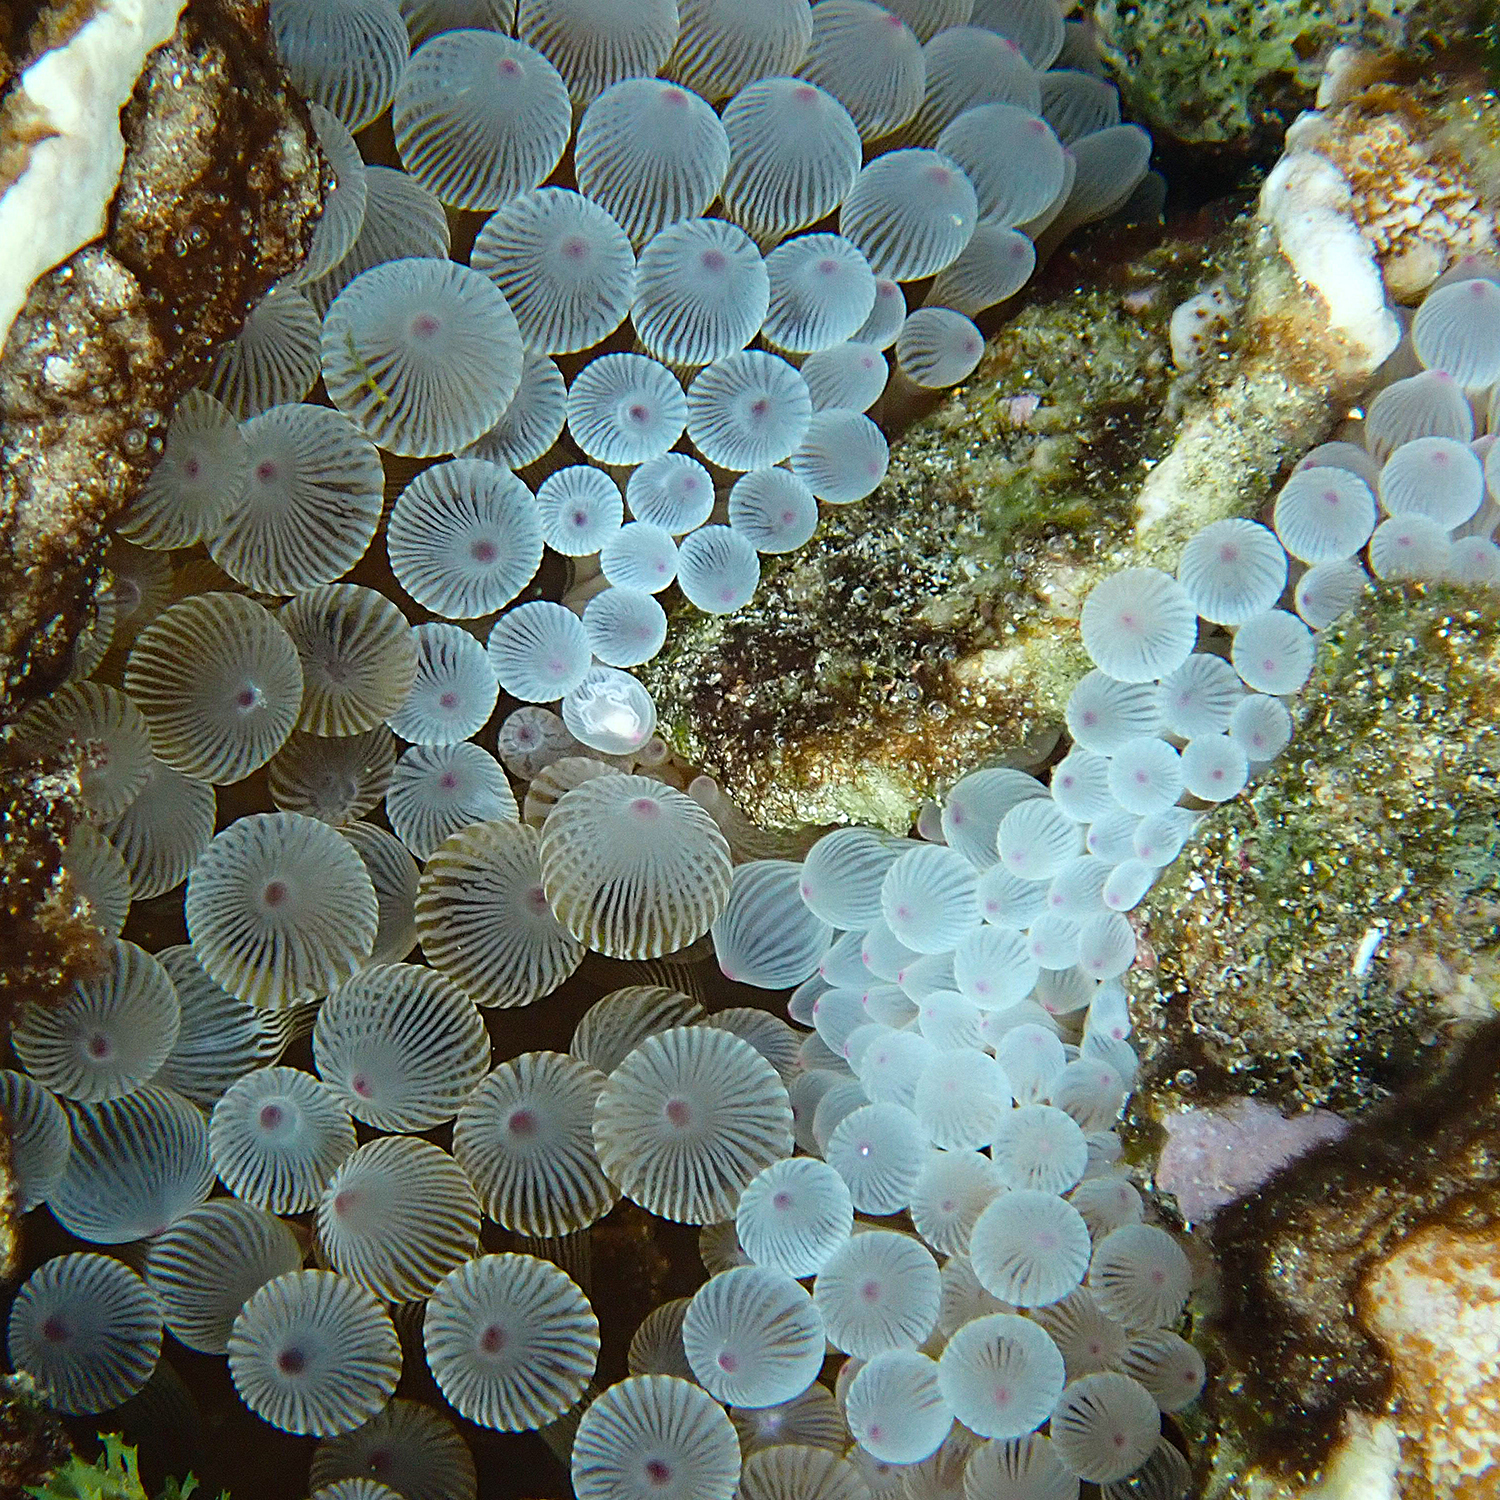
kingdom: Animalia
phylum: Cnidaria
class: Anthozoa
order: Actiniaria
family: Actiniidae
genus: Entacmaea
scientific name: Entacmaea quadricolor
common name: Bulb tentacle sea anemone
